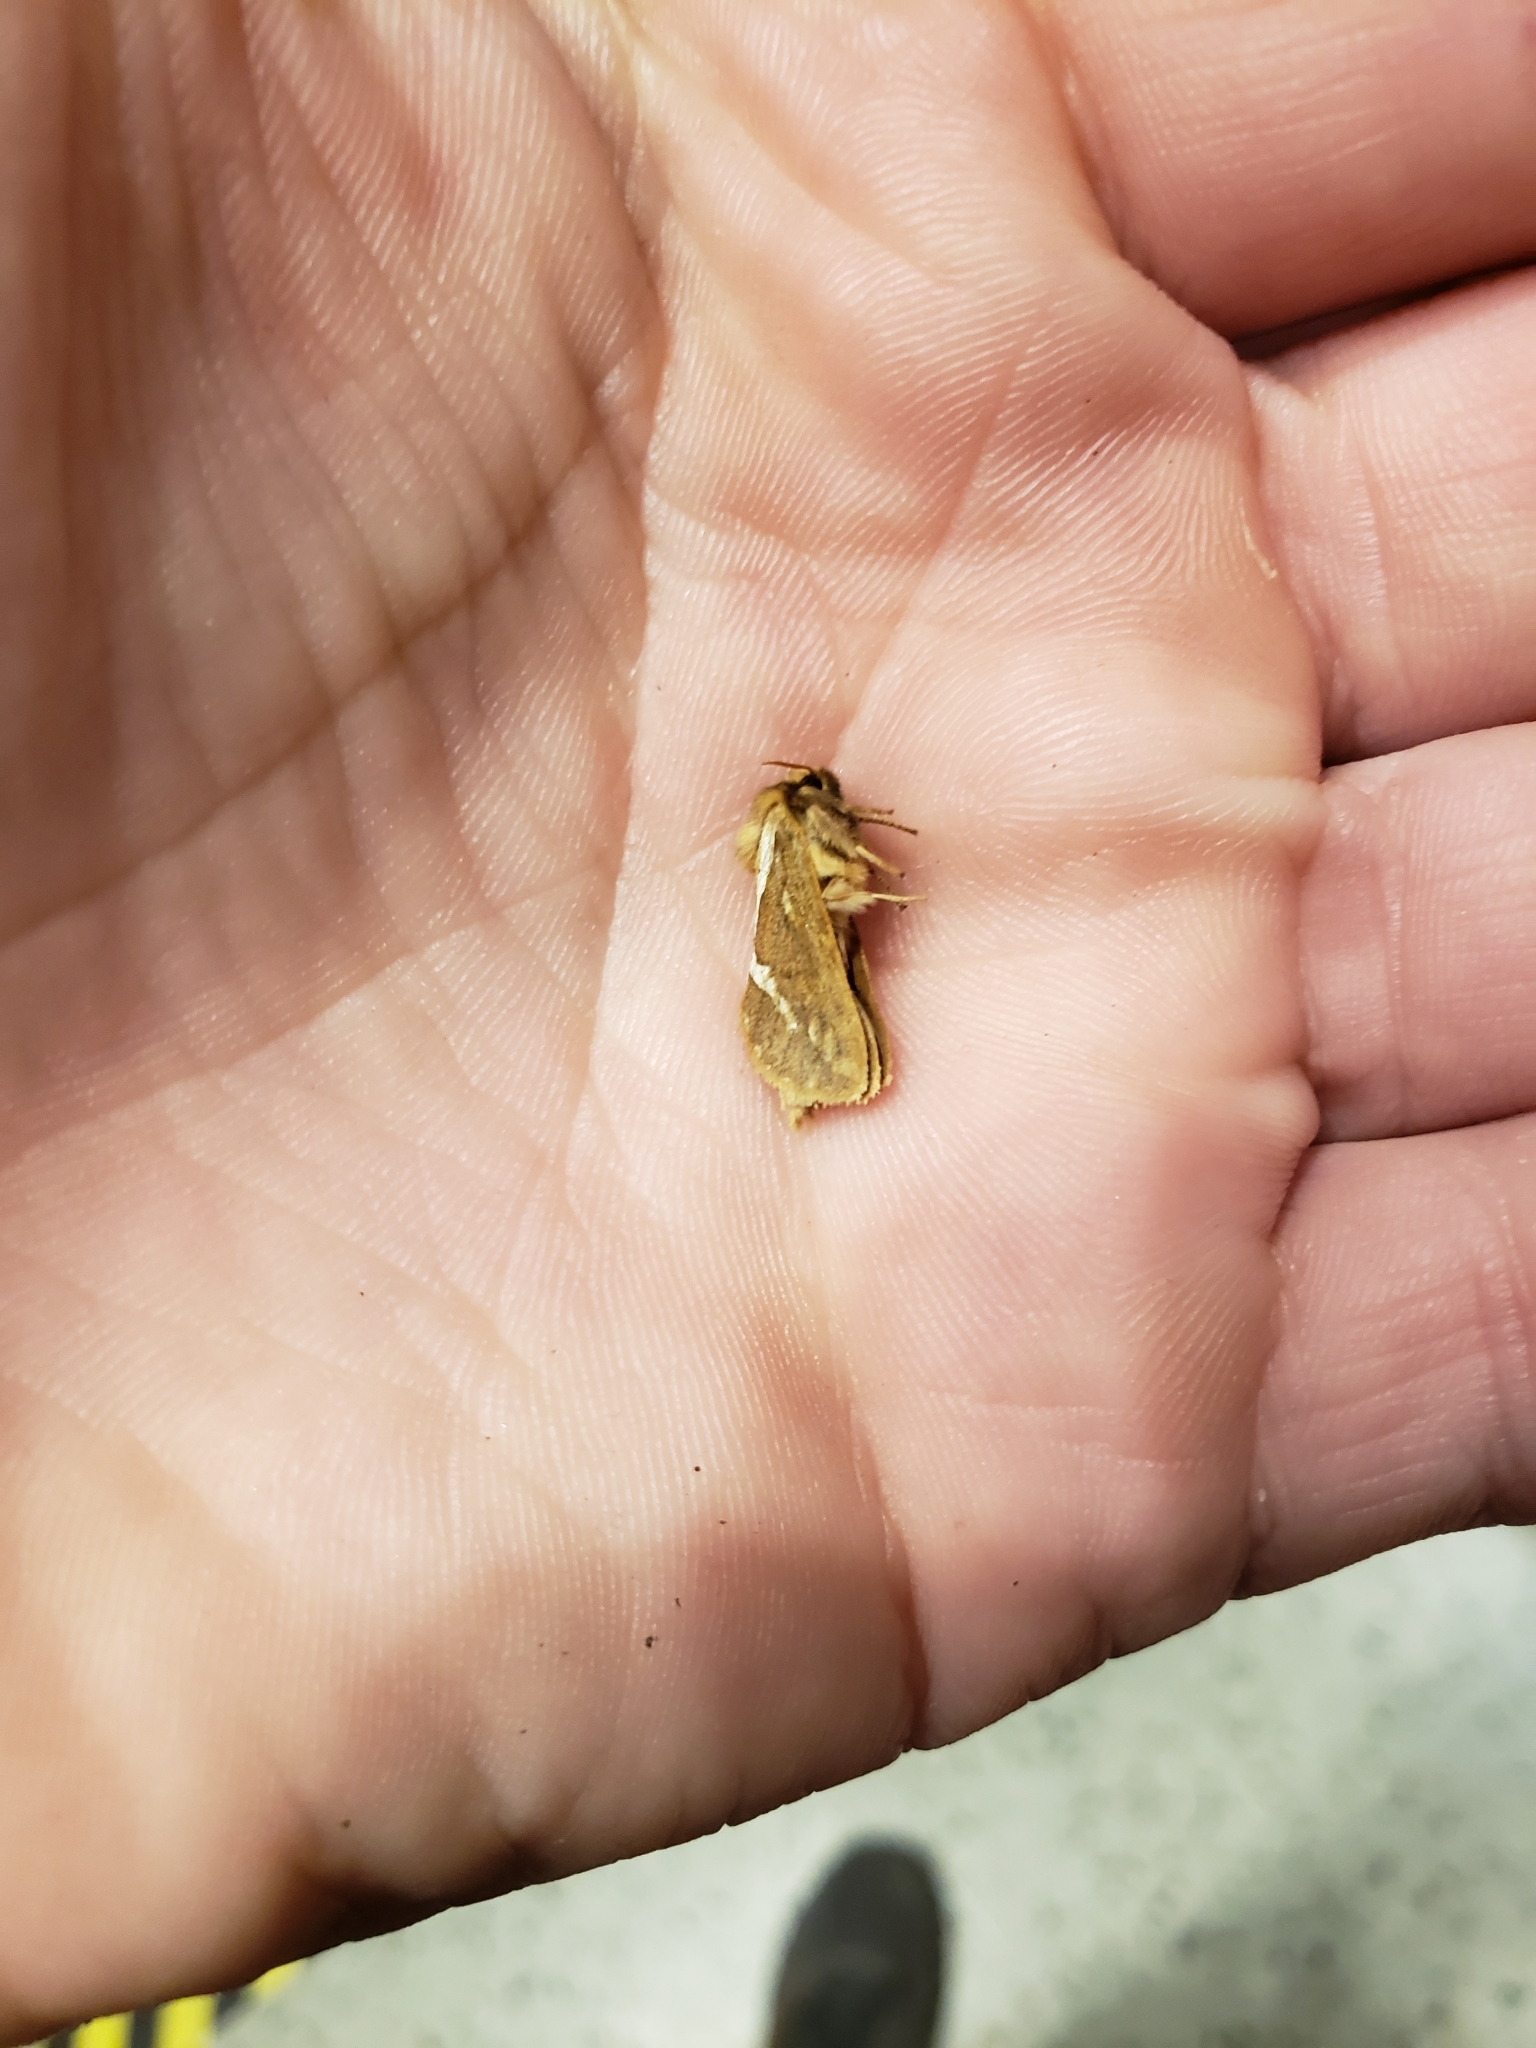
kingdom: Animalia
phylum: Arthropoda
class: Insecta
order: Lepidoptera
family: Hepialidae
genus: Korscheltellus
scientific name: Korscheltellus lupulina
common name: Common swift
